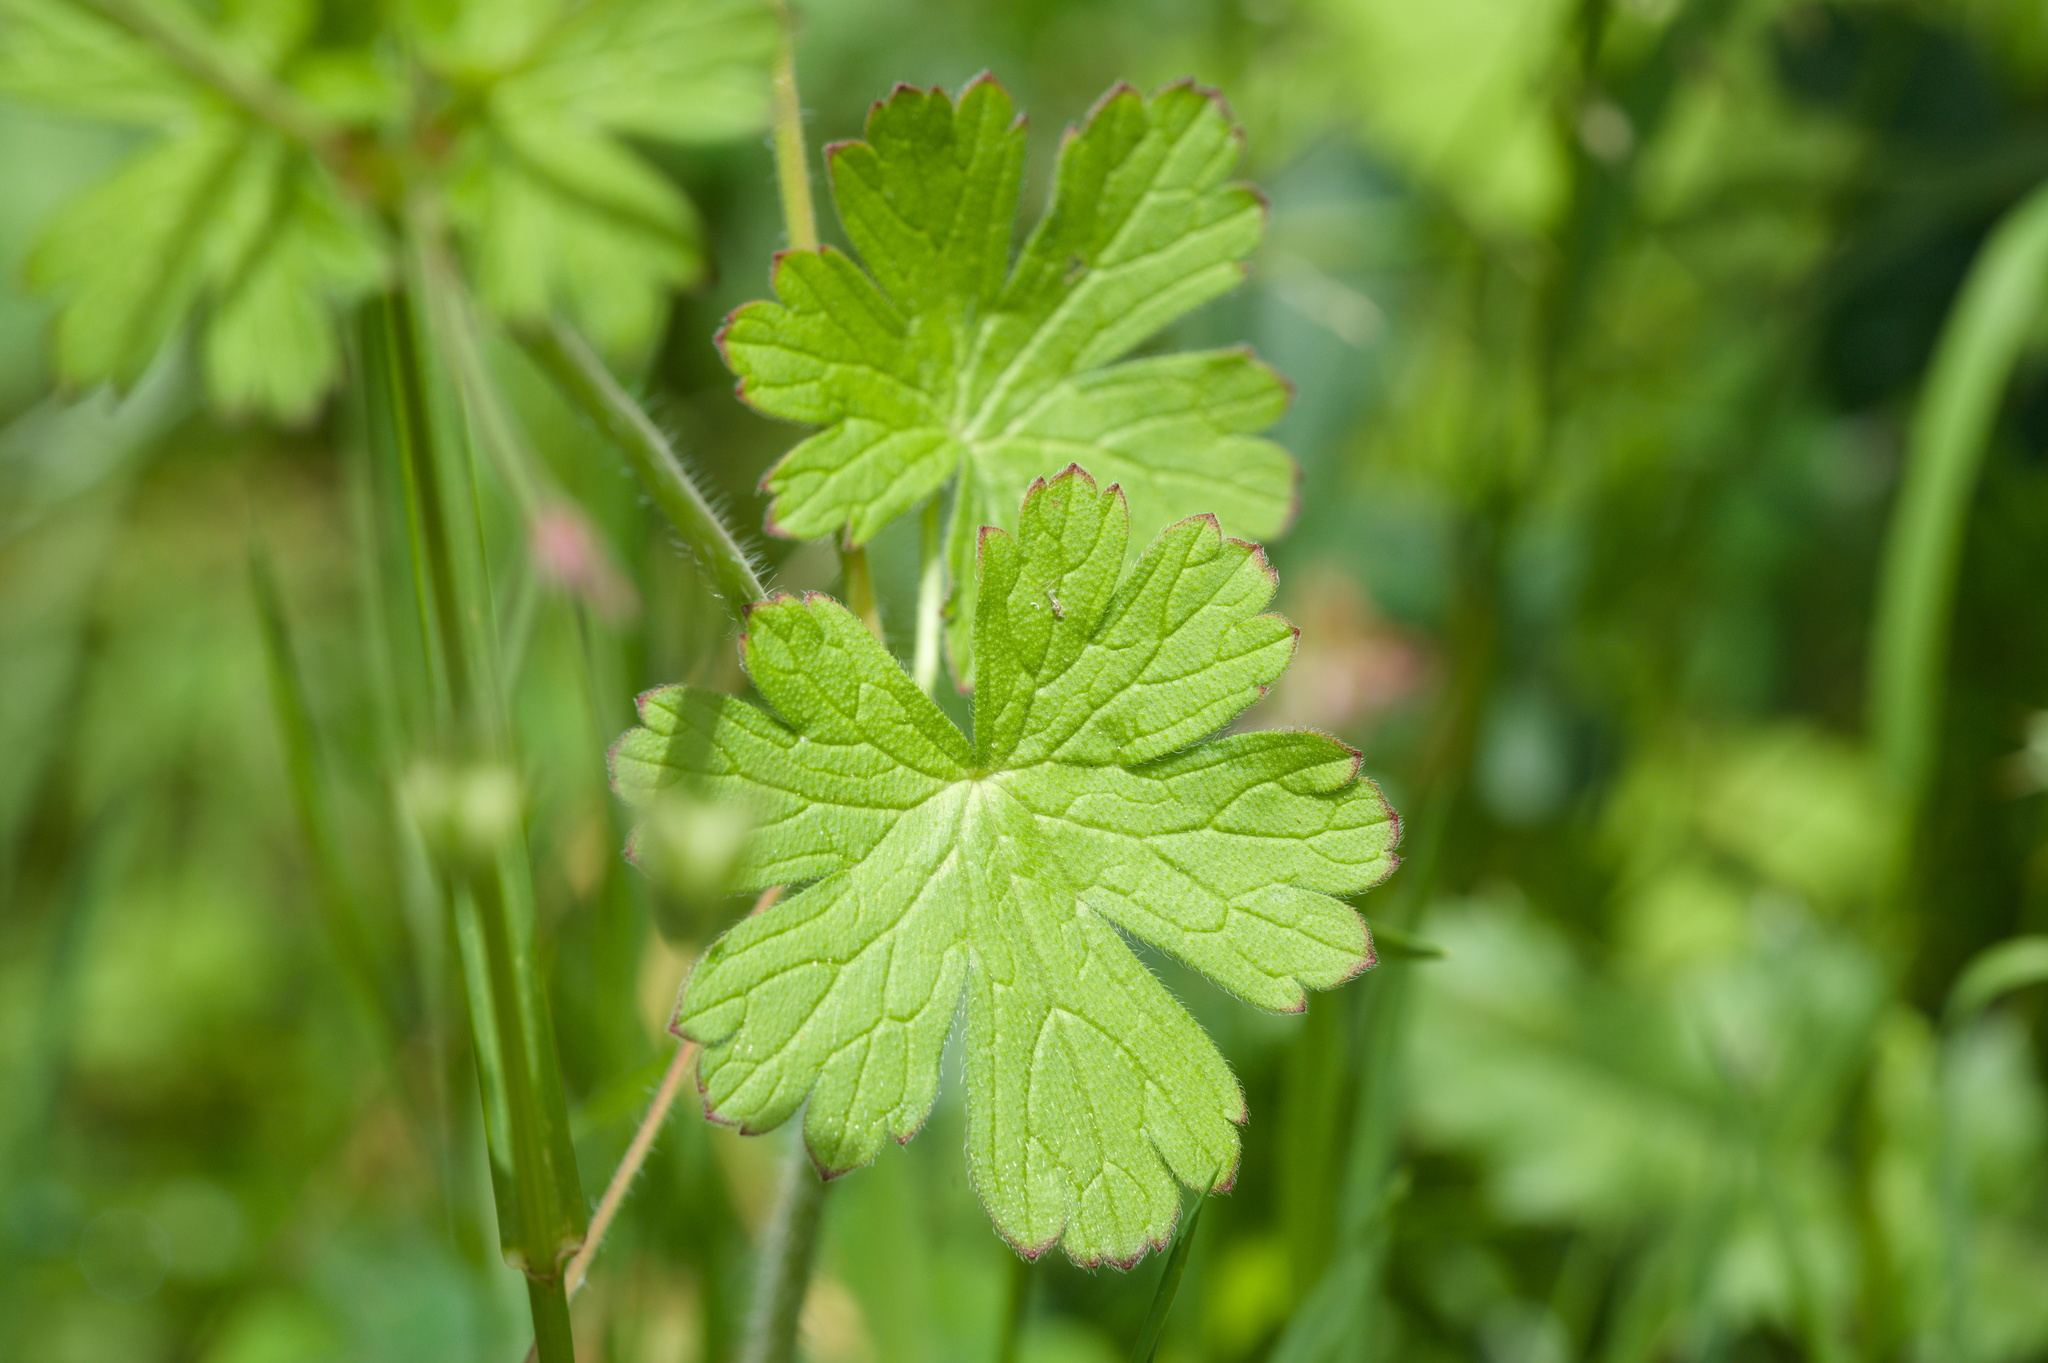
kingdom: Plantae
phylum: Tracheophyta
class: Magnoliopsida
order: Geraniales
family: Geraniaceae
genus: Geranium
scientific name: Geranium pyrenaicum
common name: Hedgerow crane's-bill
